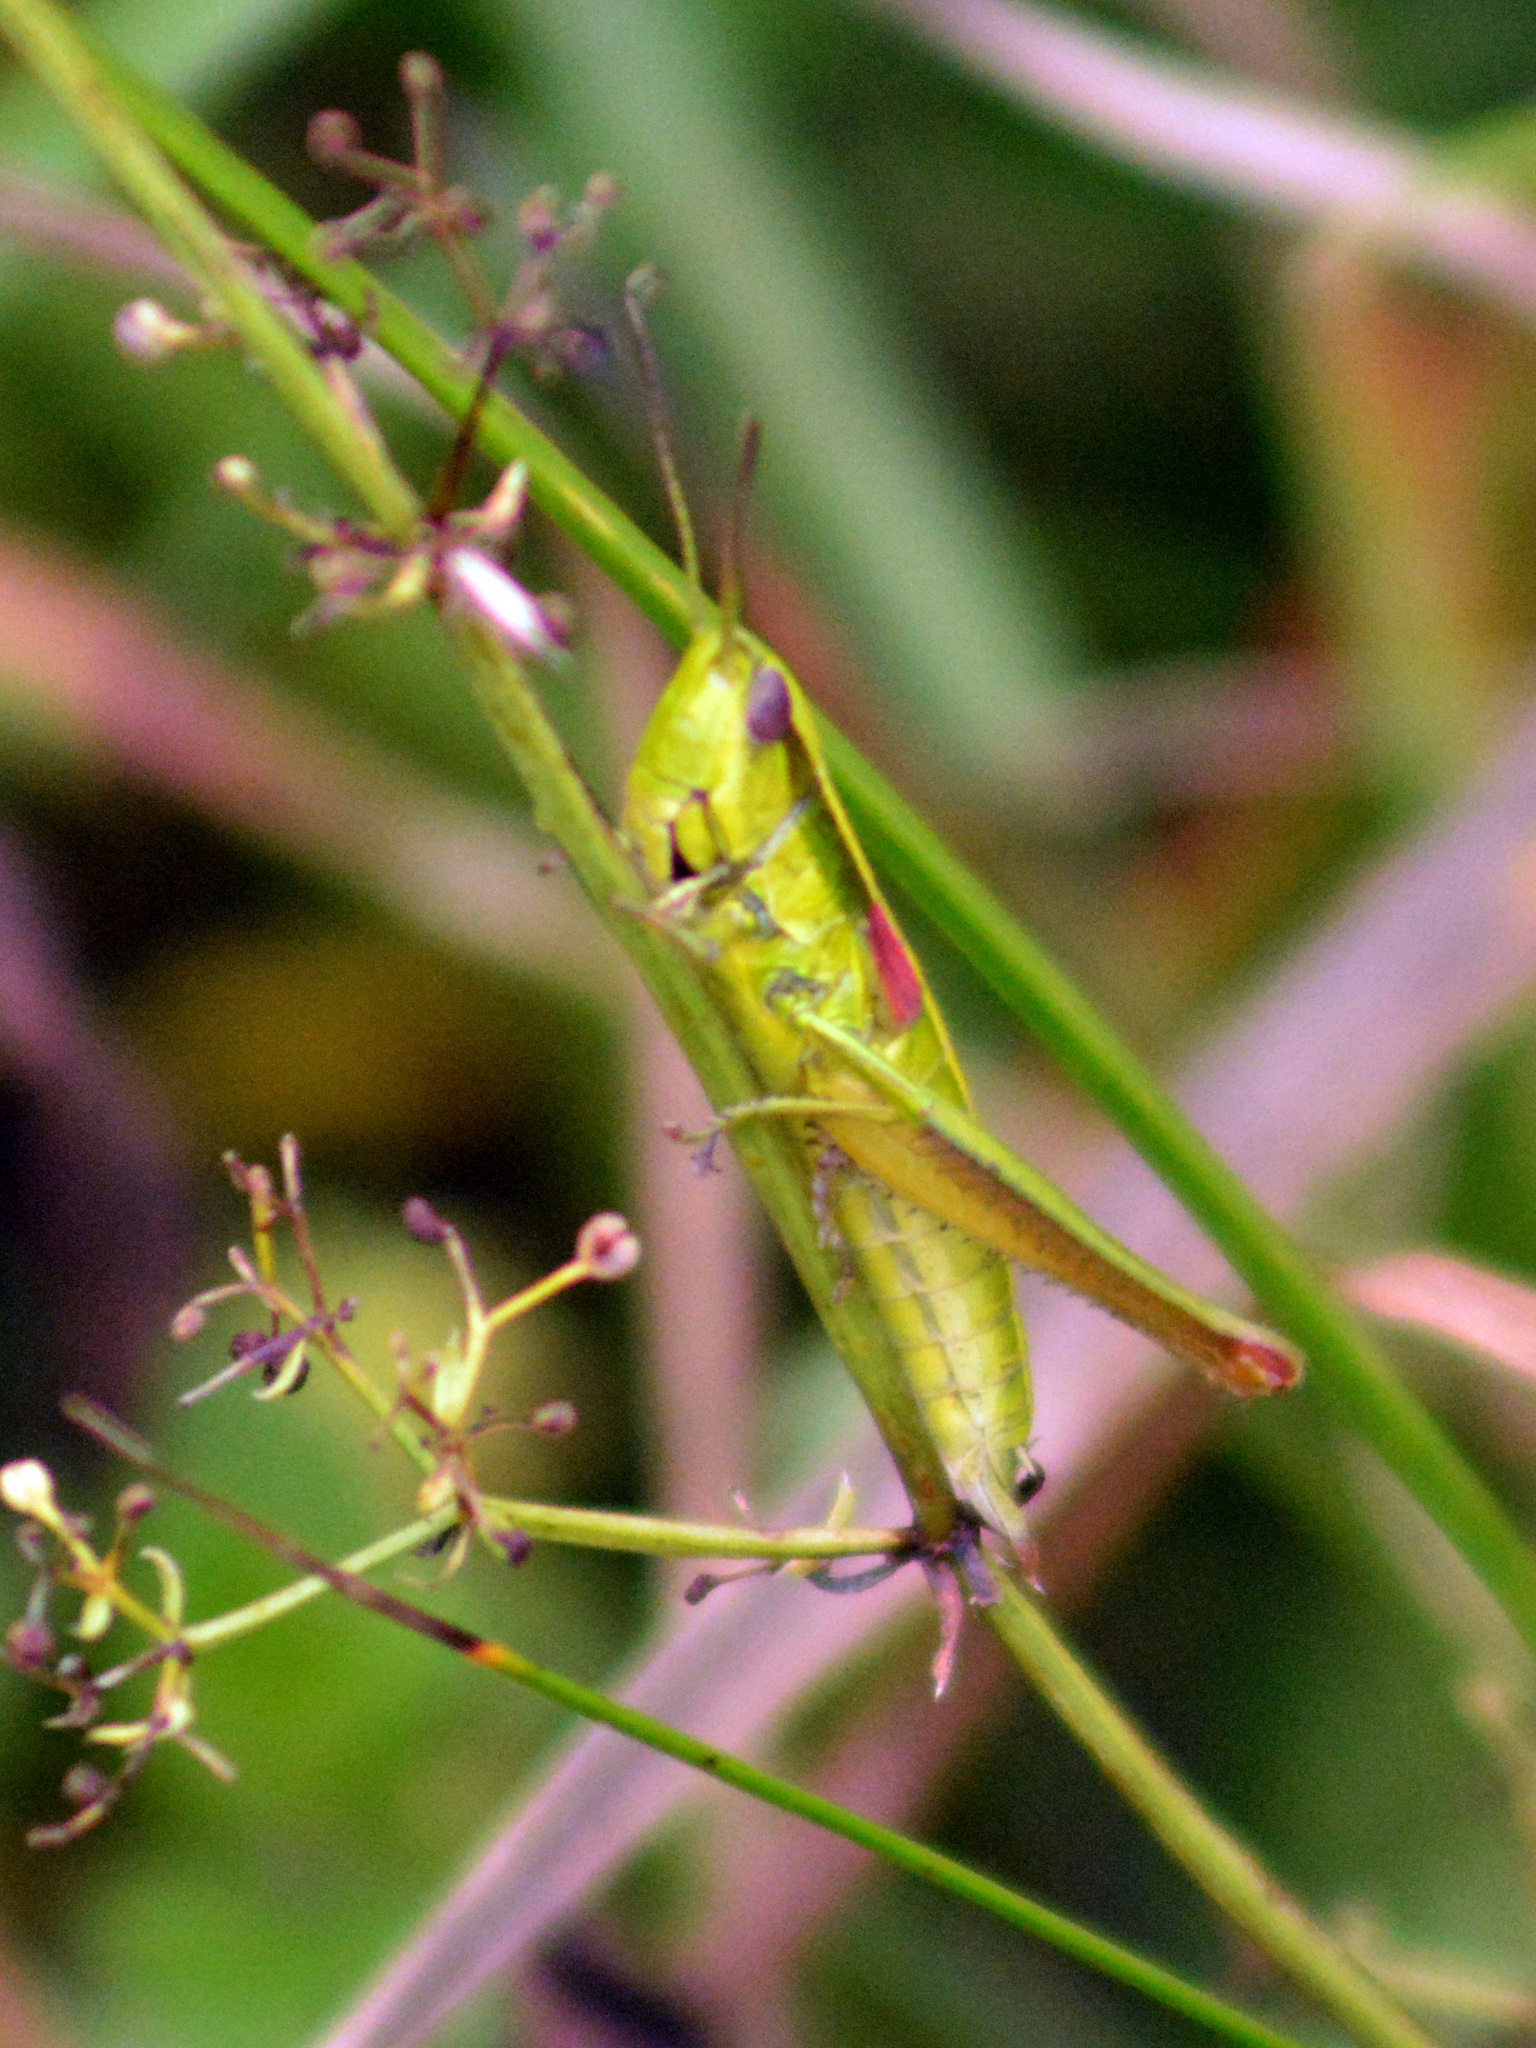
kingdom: Animalia
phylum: Arthropoda
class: Insecta
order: Orthoptera
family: Acrididae
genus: Euthystira
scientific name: Euthystira brachyptera
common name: Small gold grasshopper
